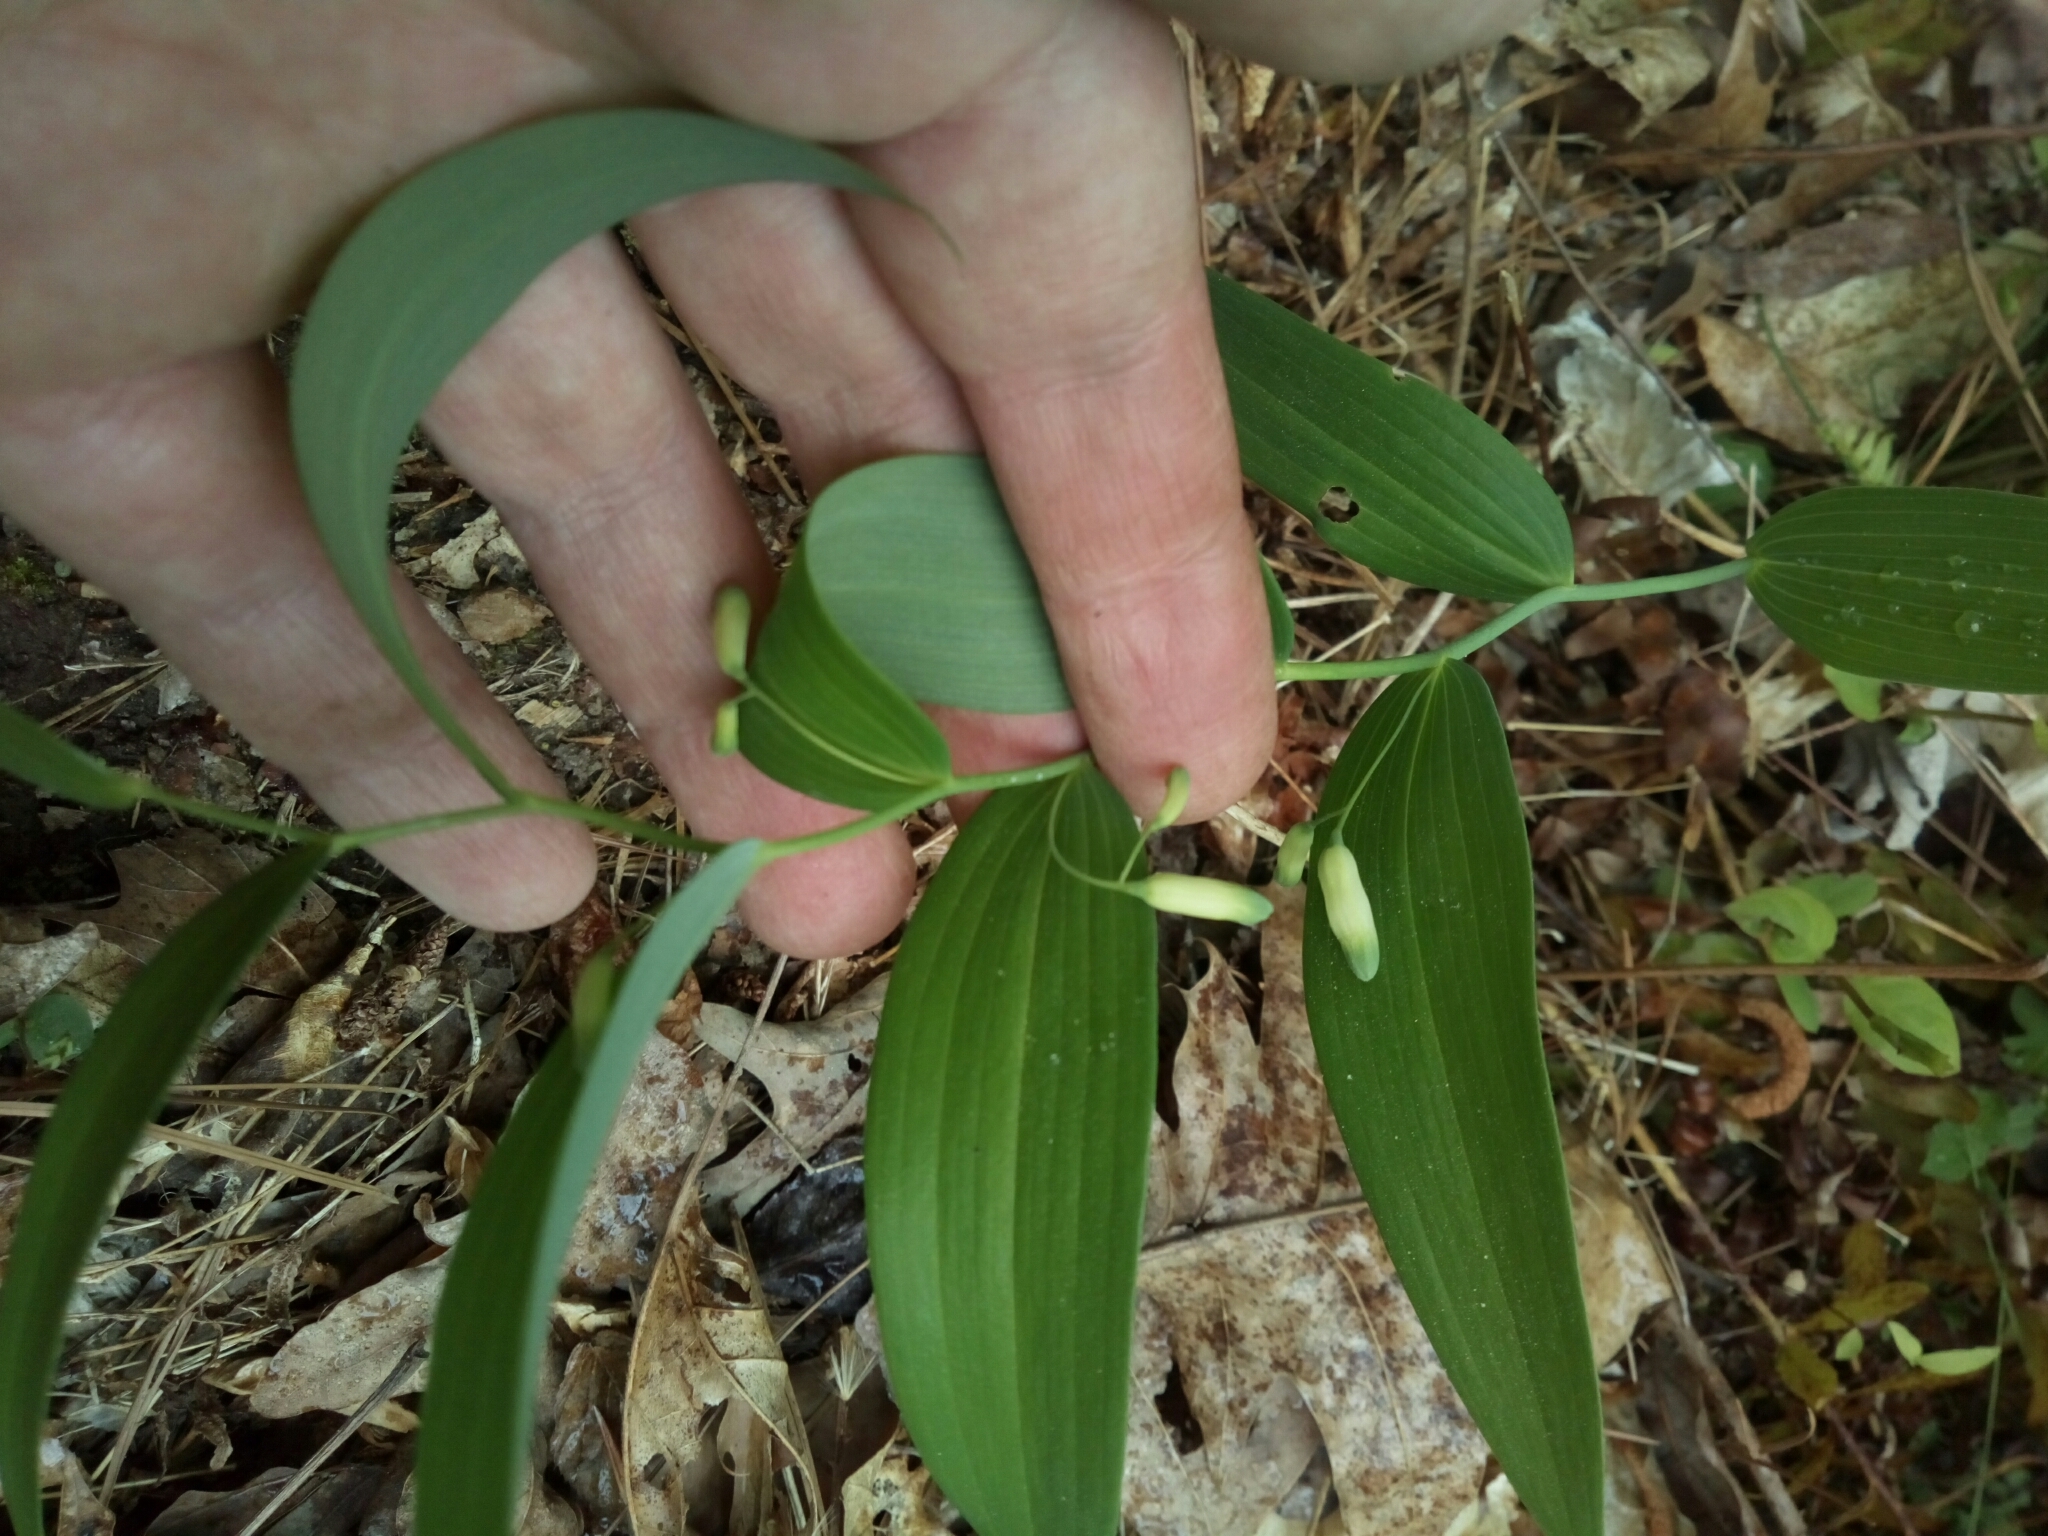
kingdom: Plantae
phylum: Tracheophyta
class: Liliopsida
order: Asparagales
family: Asparagaceae
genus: Polygonatum
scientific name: Polygonatum biflorum
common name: American solomon's-seal
